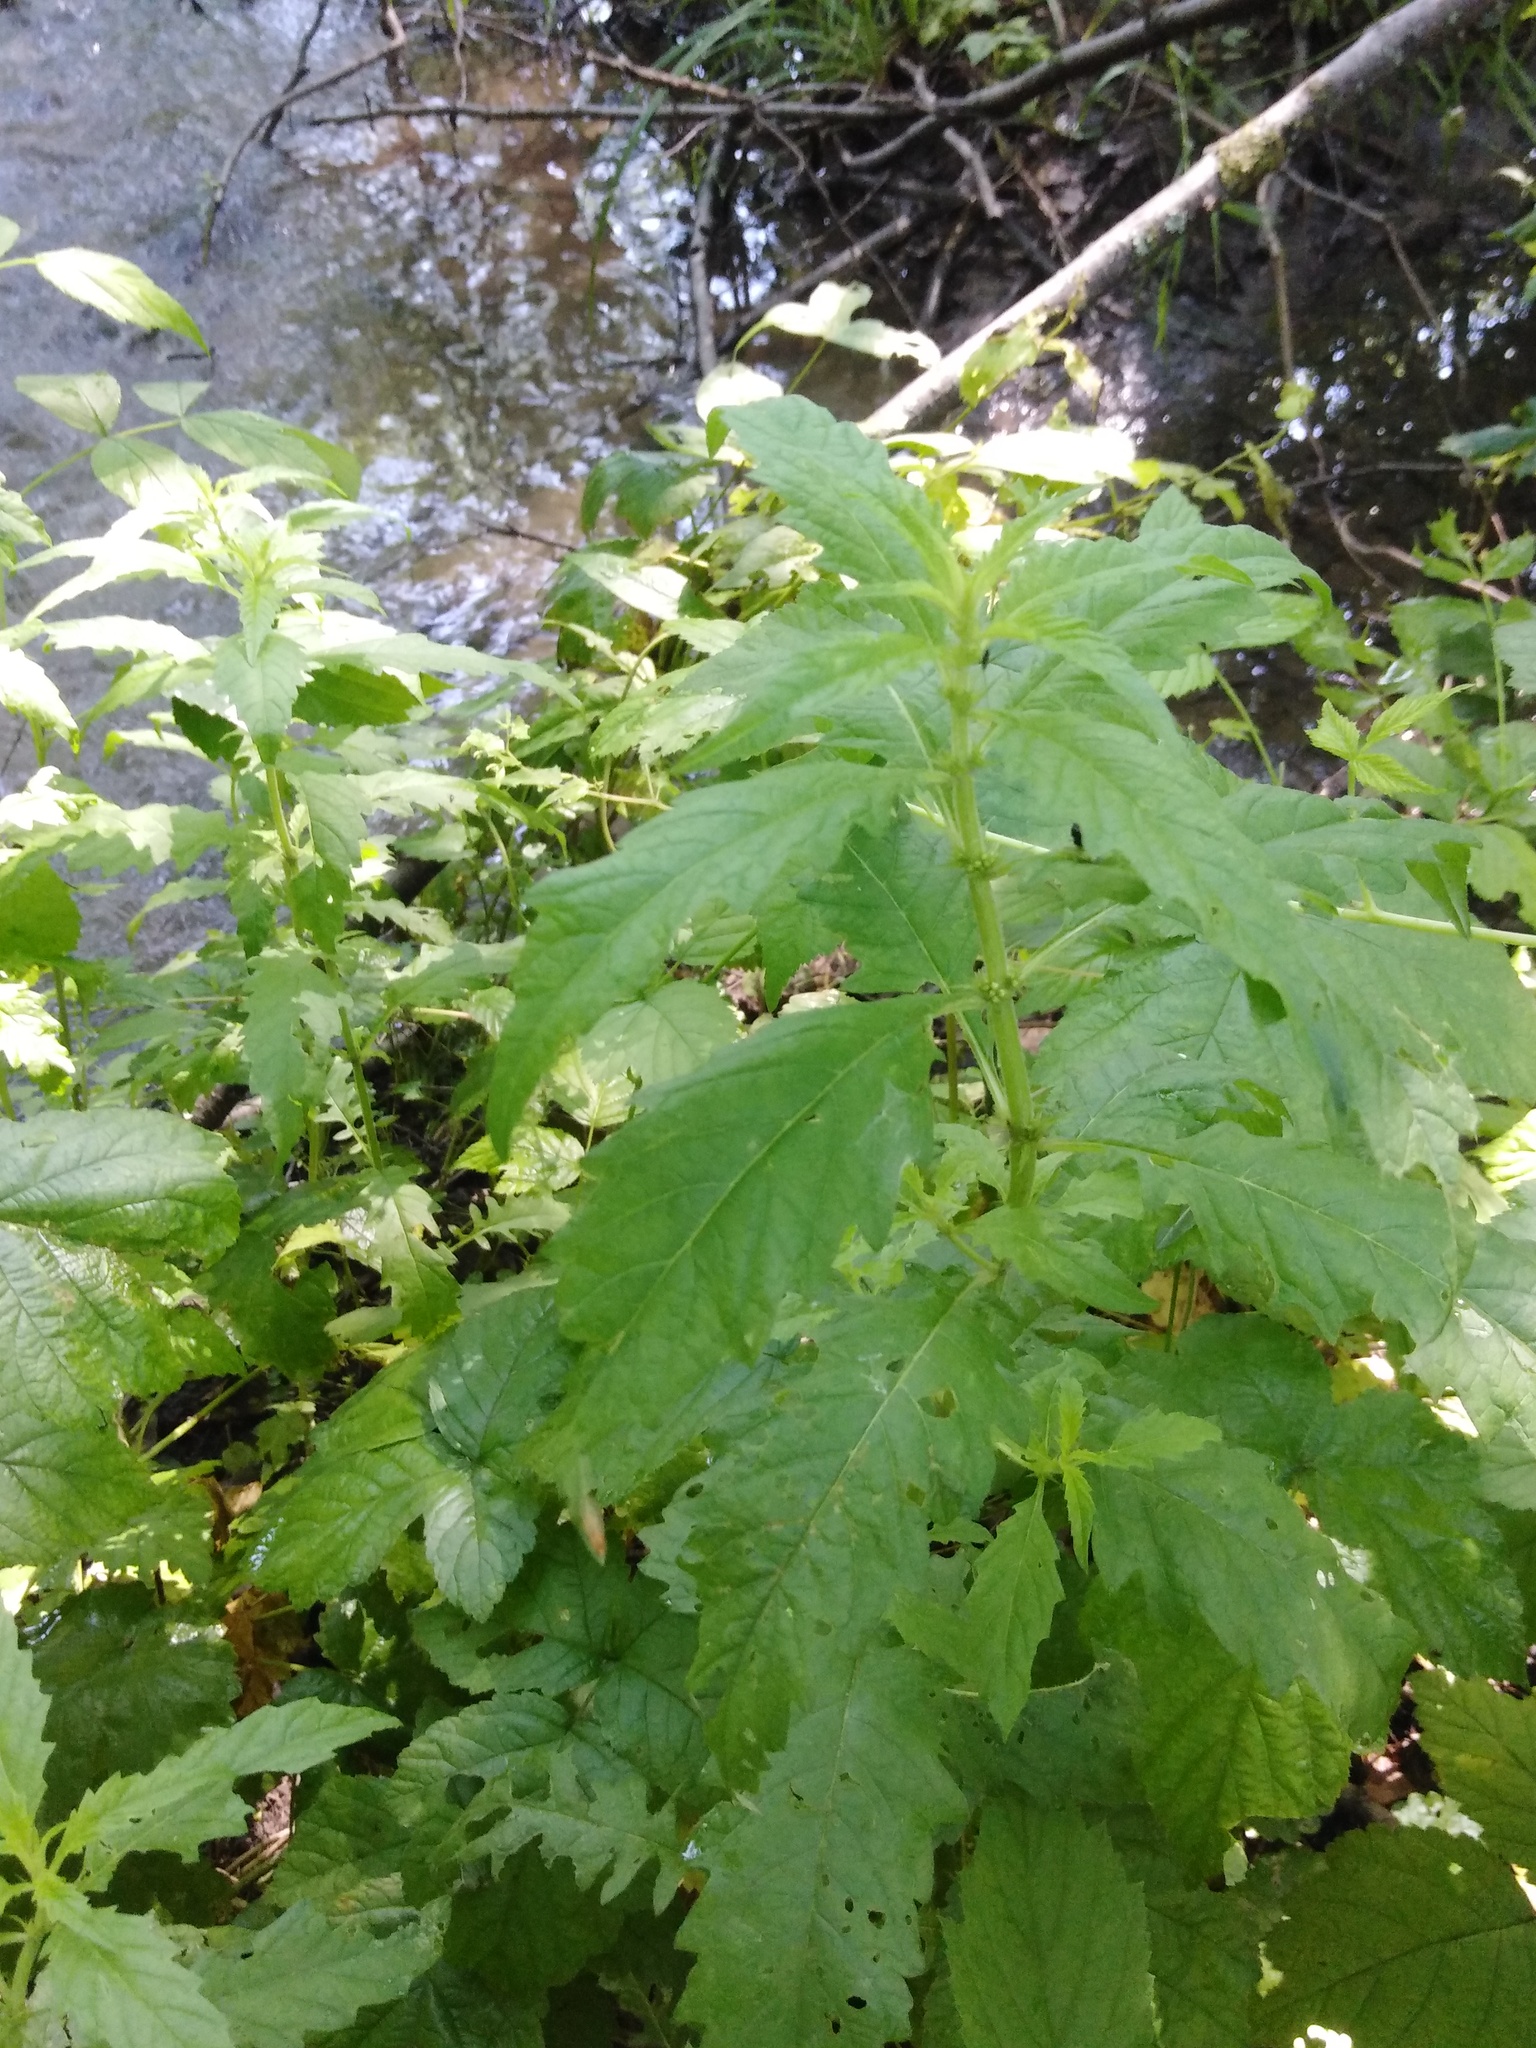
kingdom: Plantae
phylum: Tracheophyta
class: Magnoliopsida
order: Lamiales
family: Lamiaceae
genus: Lycopus
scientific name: Lycopus europaeus
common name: European bugleweed
